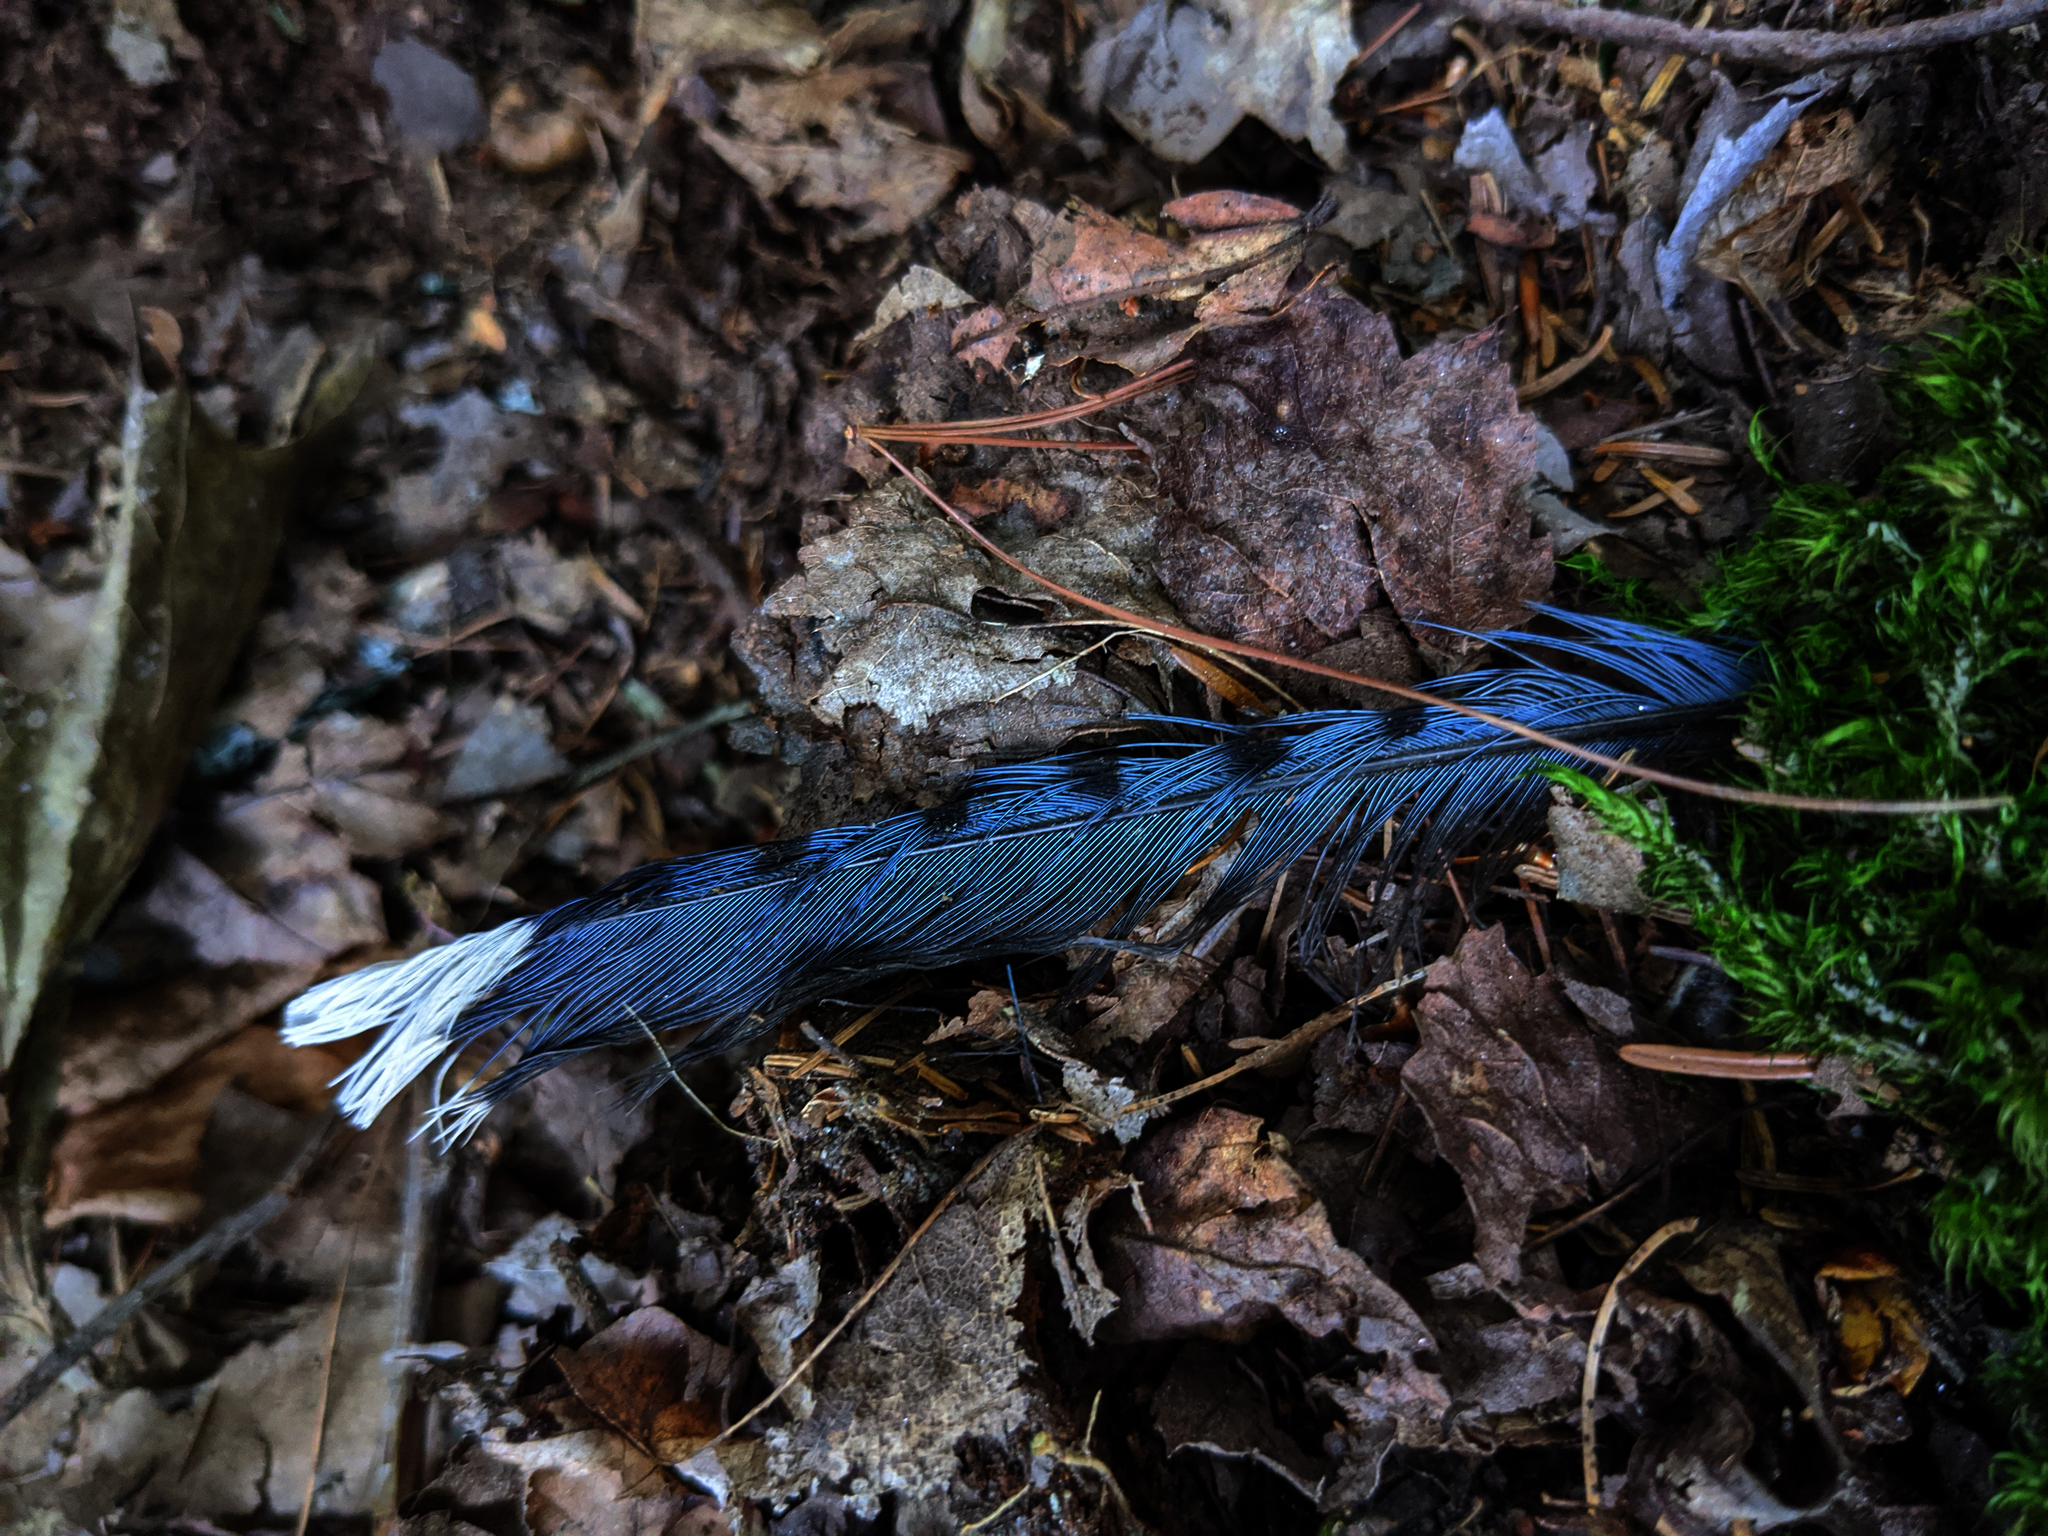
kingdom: Animalia
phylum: Chordata
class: Aves
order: Passeriformes
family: Corvidae
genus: Cyanocitta
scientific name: Cyanocitta cristata
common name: Blue jay
